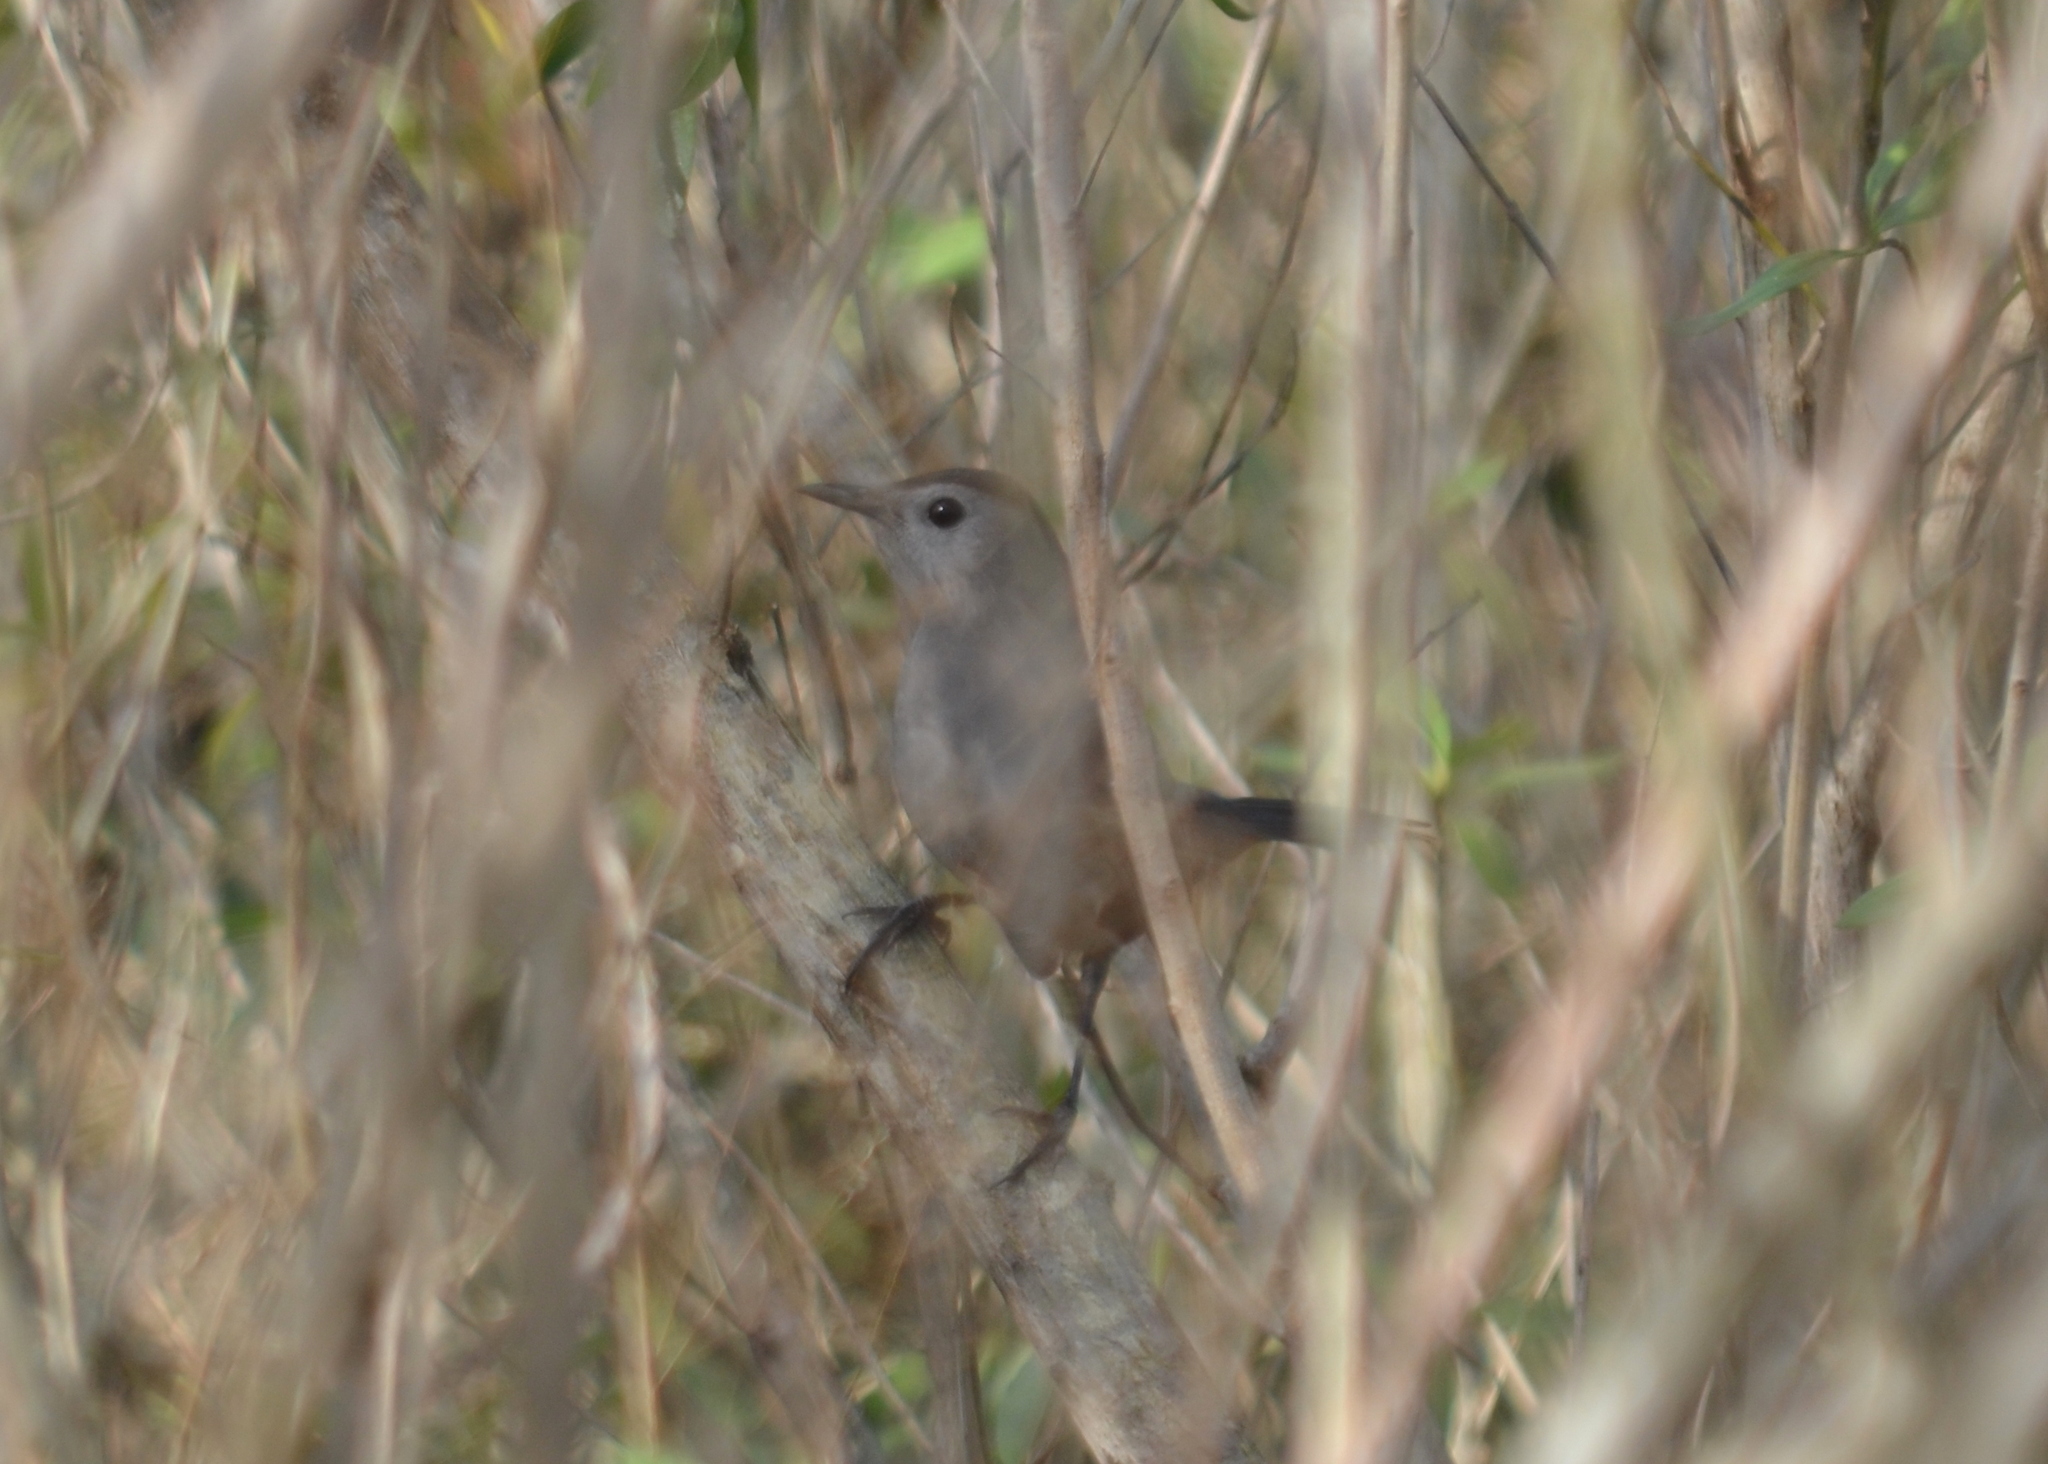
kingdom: Animalia
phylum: Chordata
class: Aves
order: Passeriformes
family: Mimidae
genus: Dumetella
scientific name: Dumetella carolinensis
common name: Gray catbird
